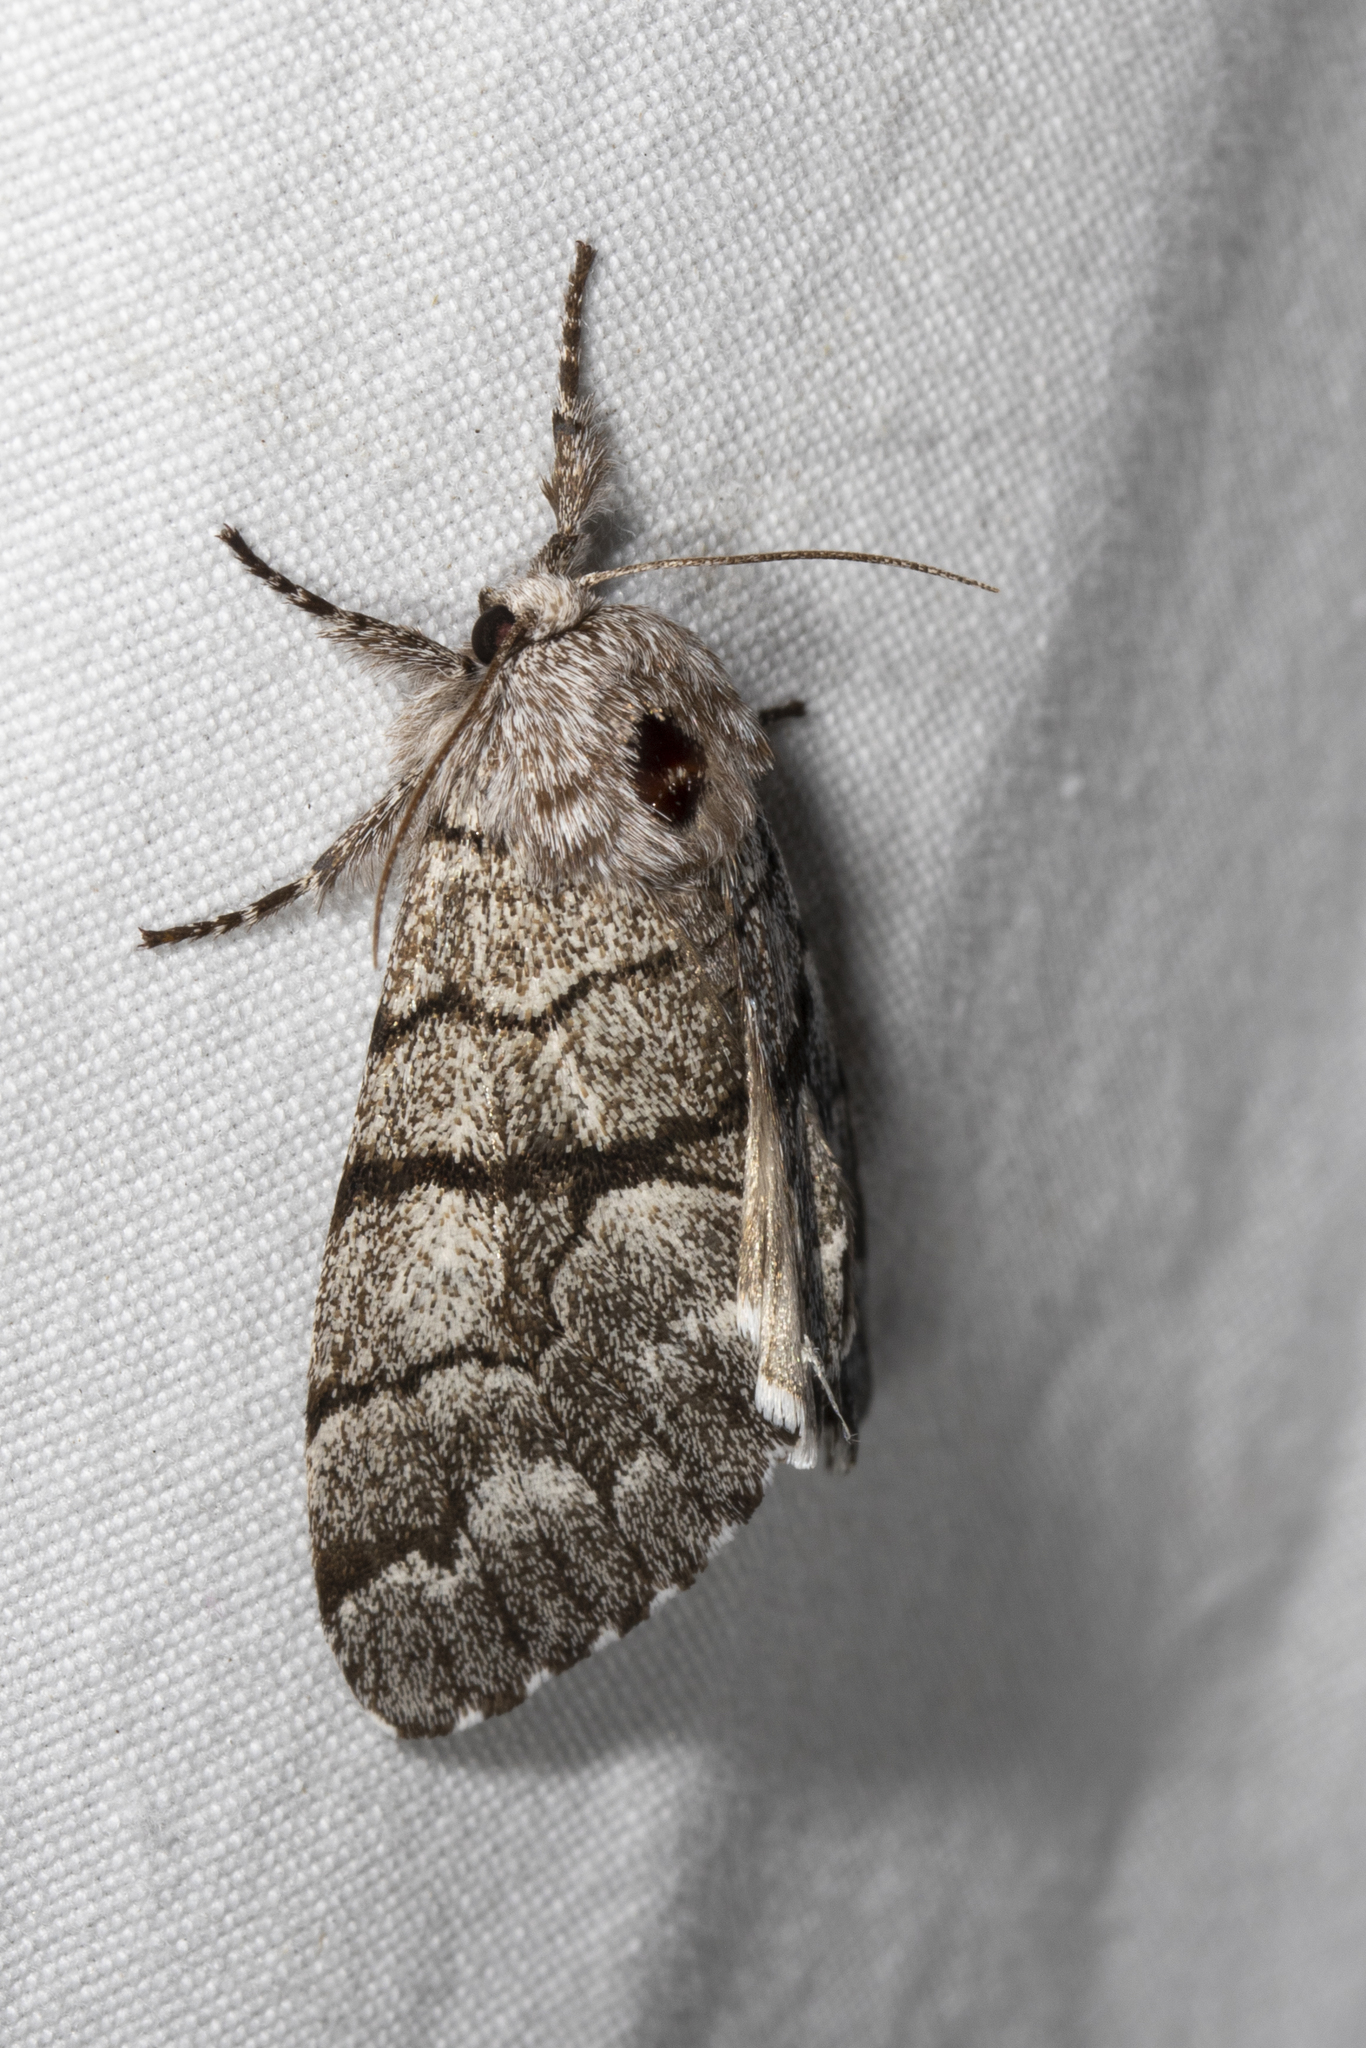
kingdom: Animalia
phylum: Arthropoda
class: Insecta
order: Lepidoptera
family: Noctuidae
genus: Panthea
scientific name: Panthea furcilla
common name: Eastern panthea moth
